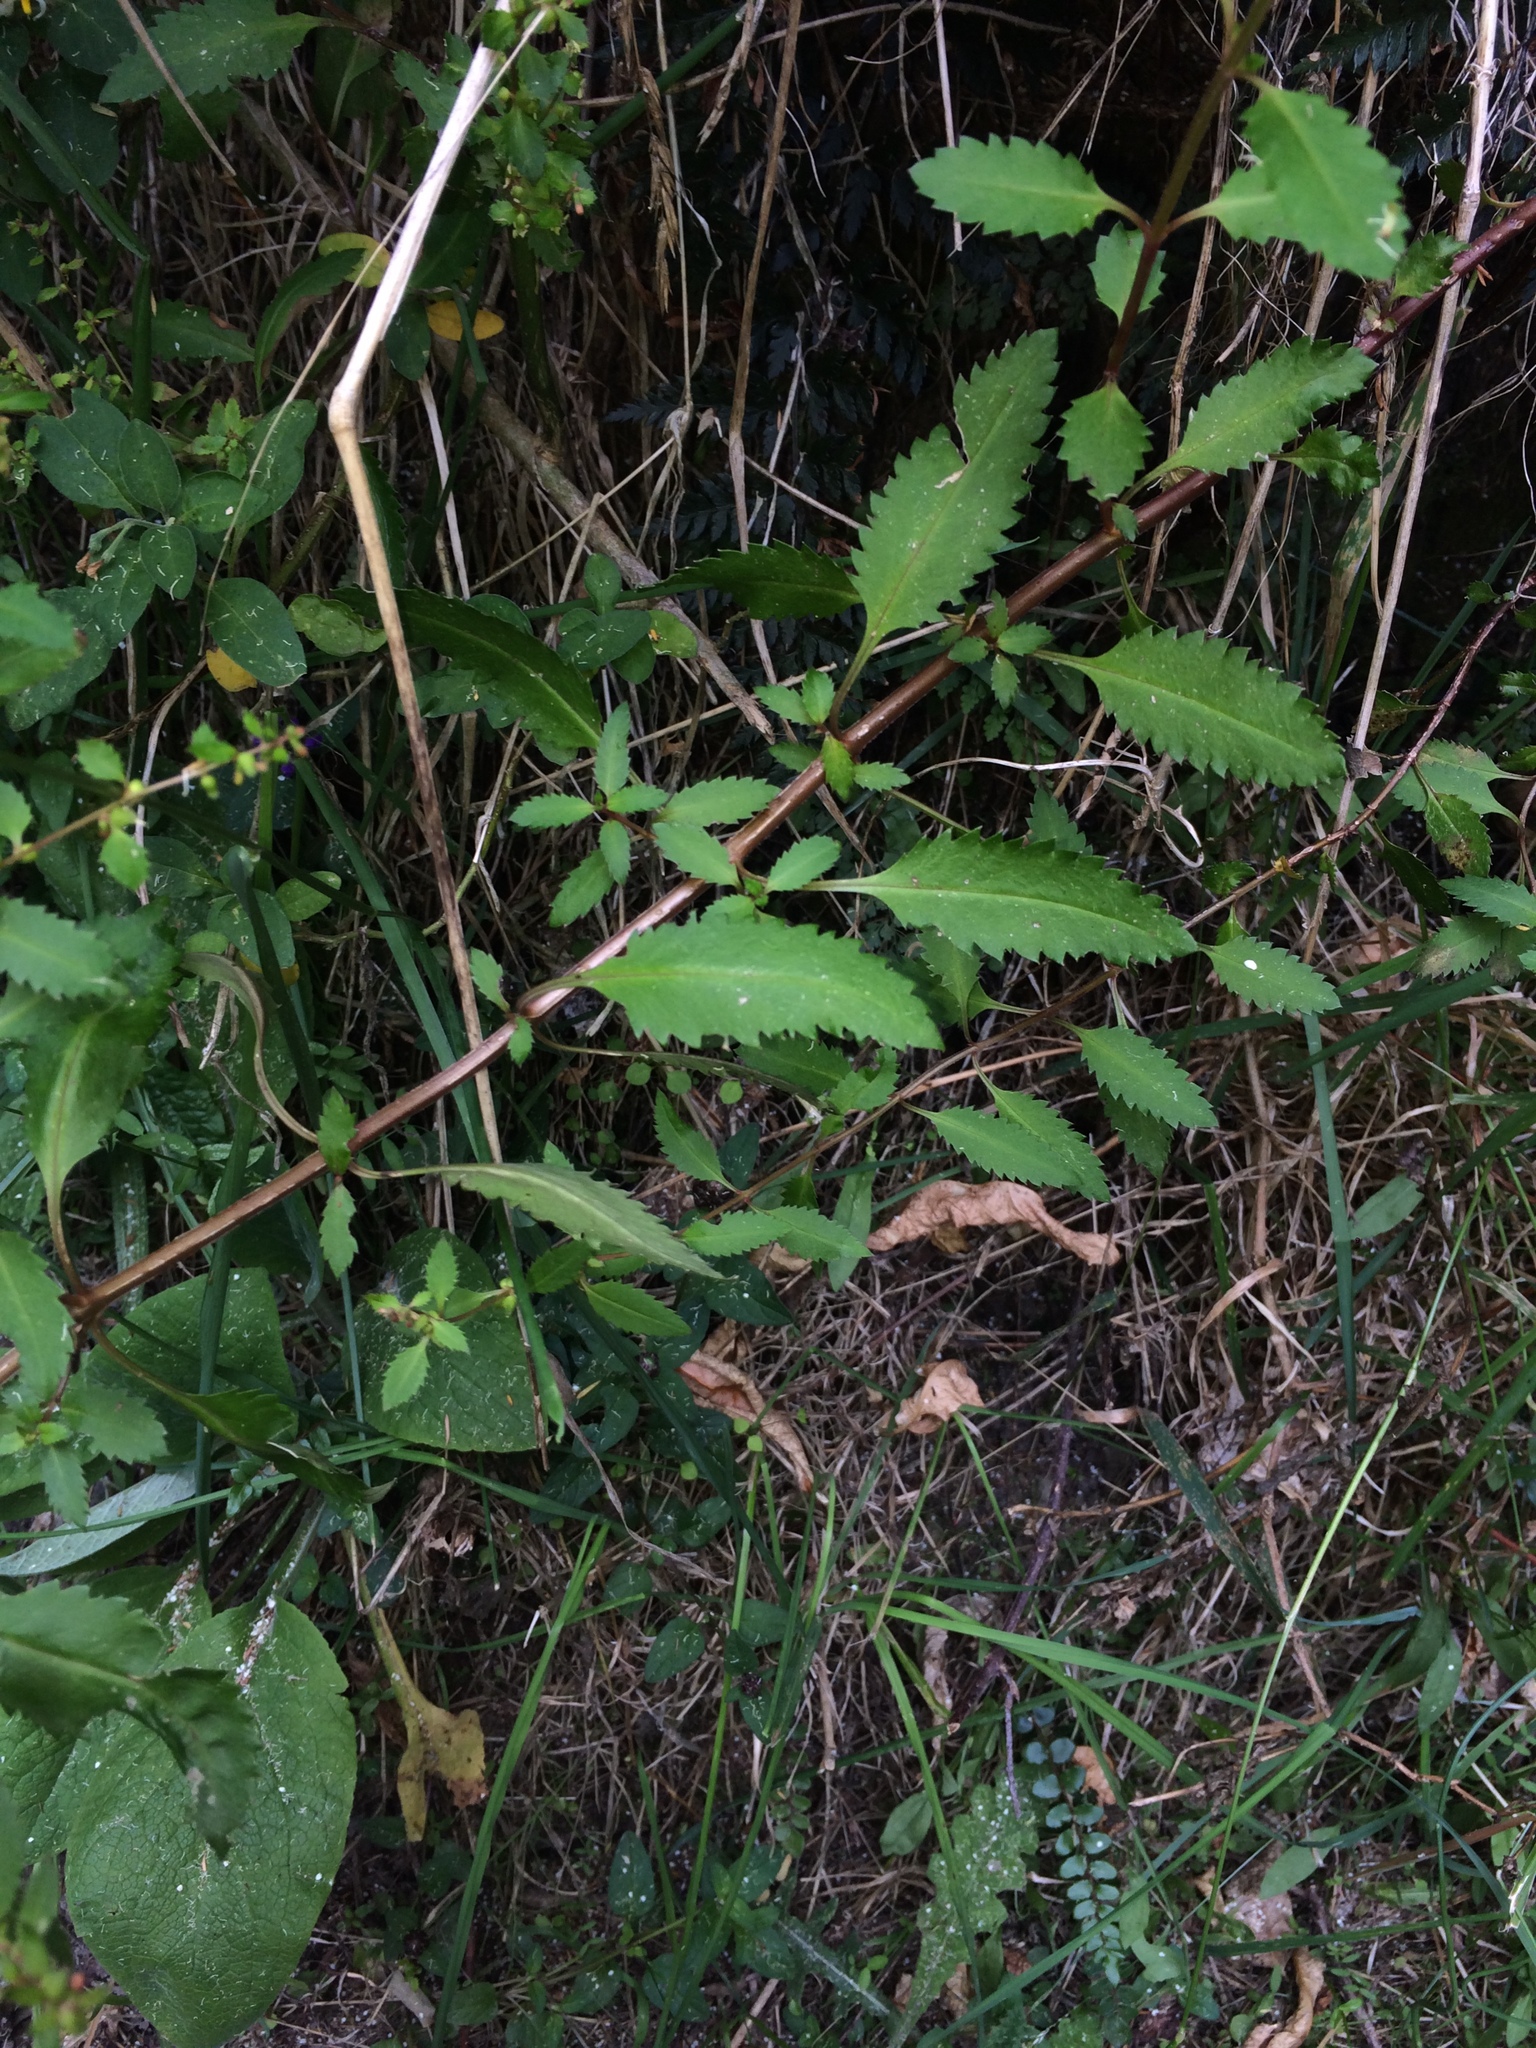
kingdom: Plantae
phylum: Tracheophyta
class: Magnoliopsida
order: Saxifragales
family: Haloragaceae
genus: Haloragis
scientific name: Haloragis erecta
